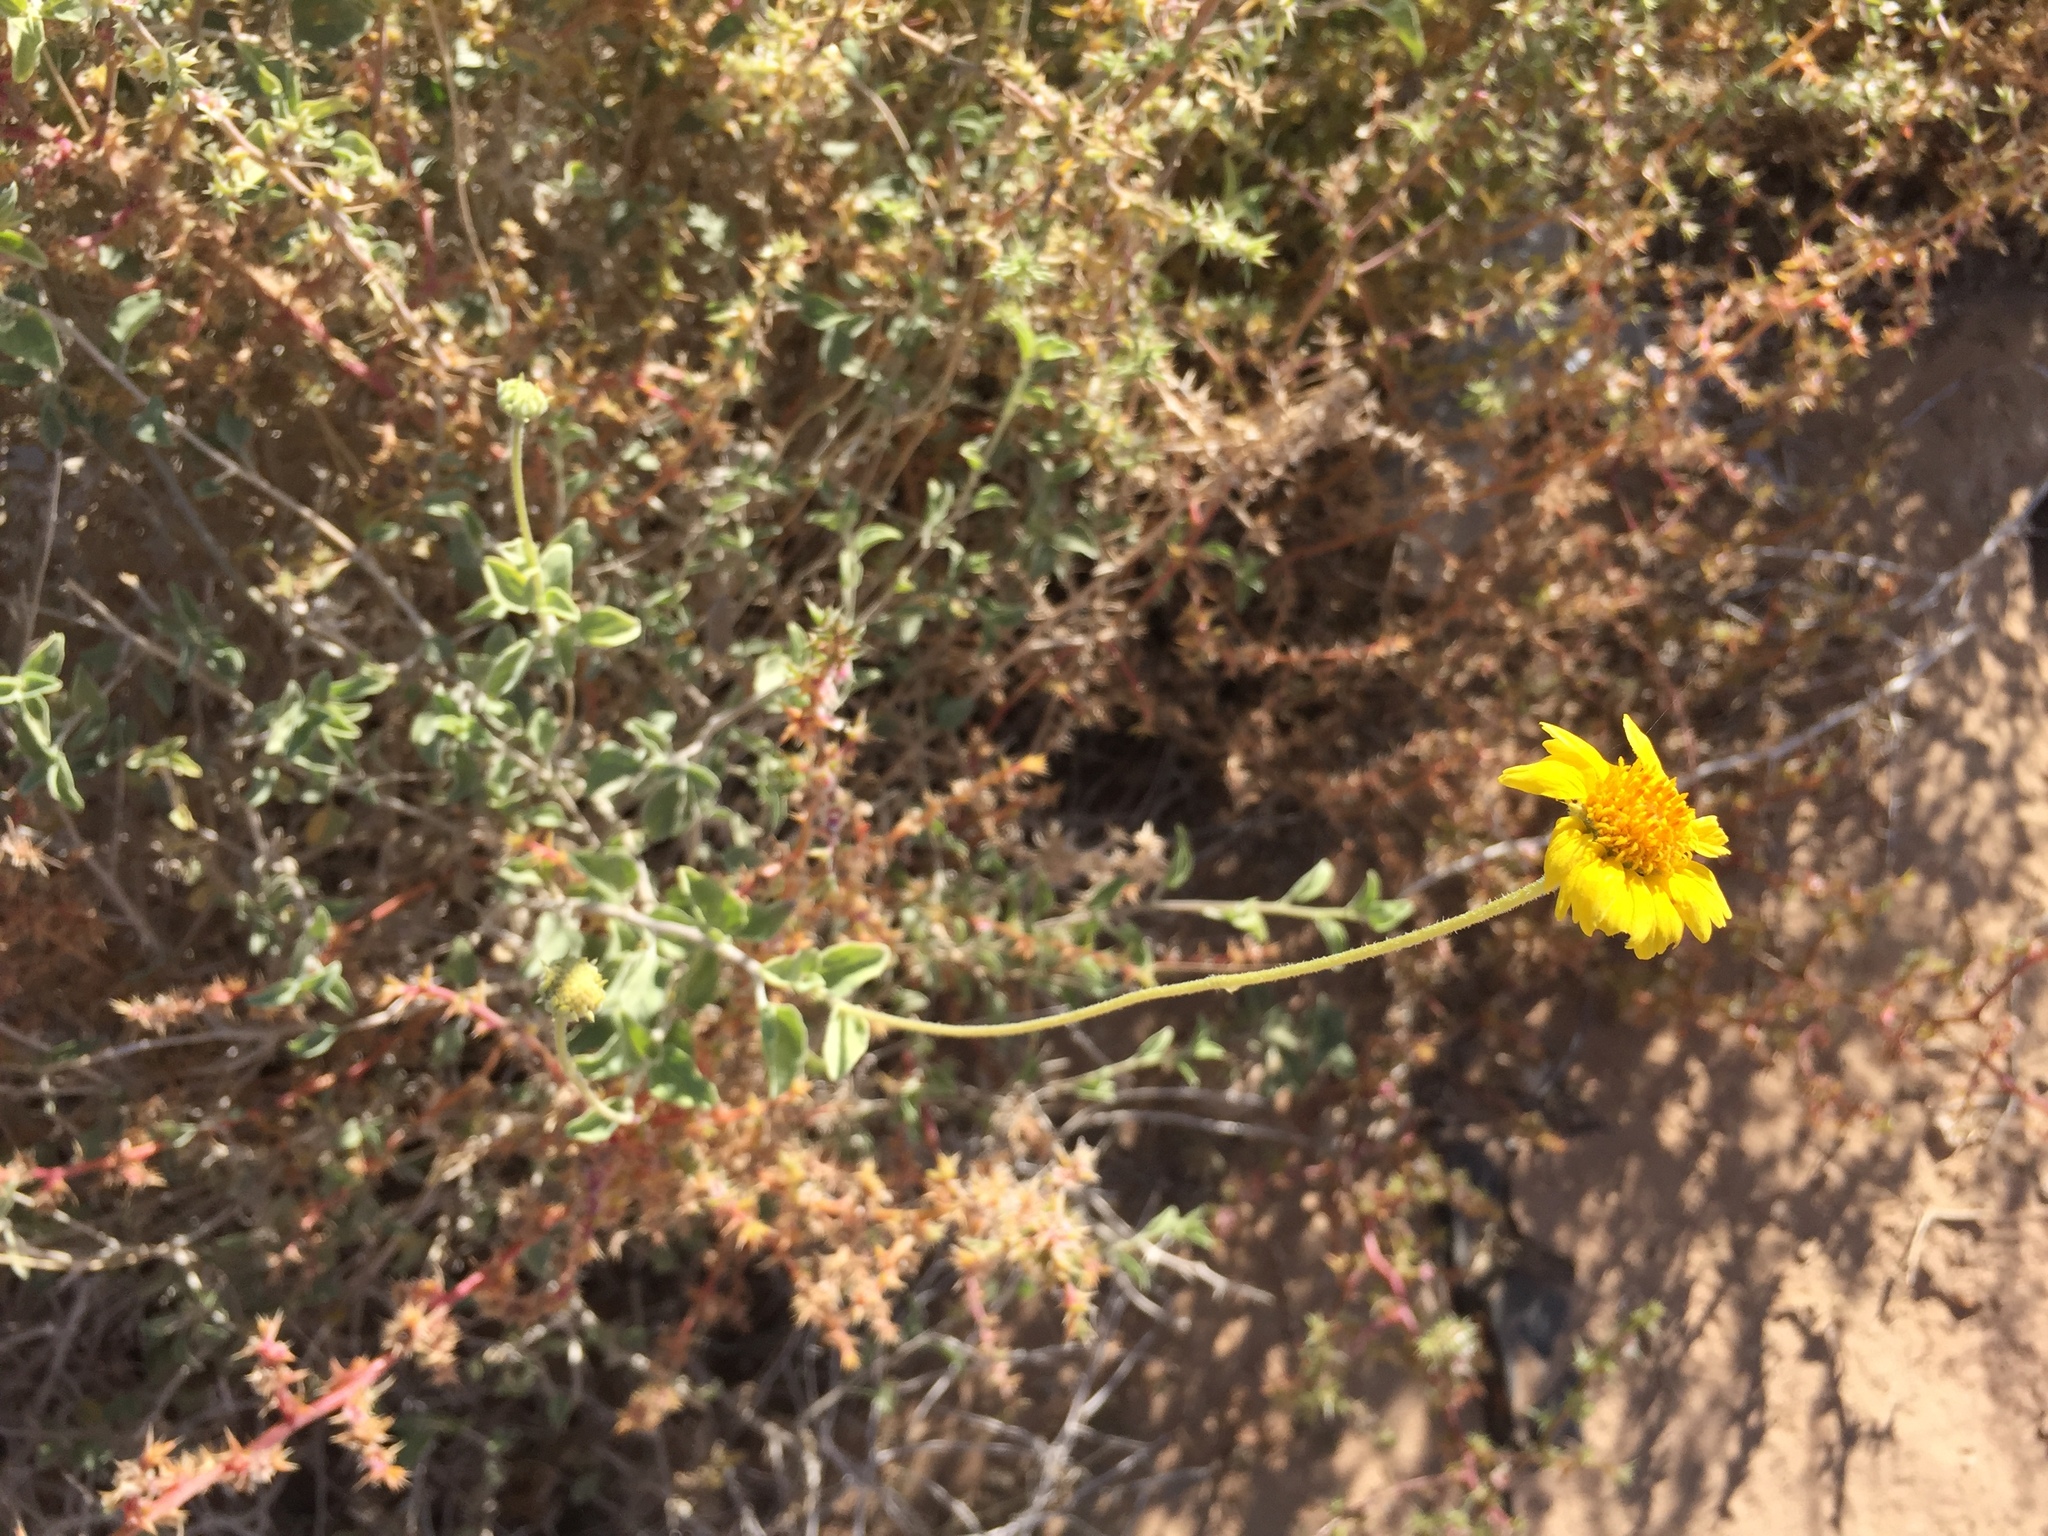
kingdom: Plantae
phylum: Tracheophyta
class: Magnoliopsida
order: Asterales
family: Asteraceae
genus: Encelia
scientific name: Encelia virginensis
